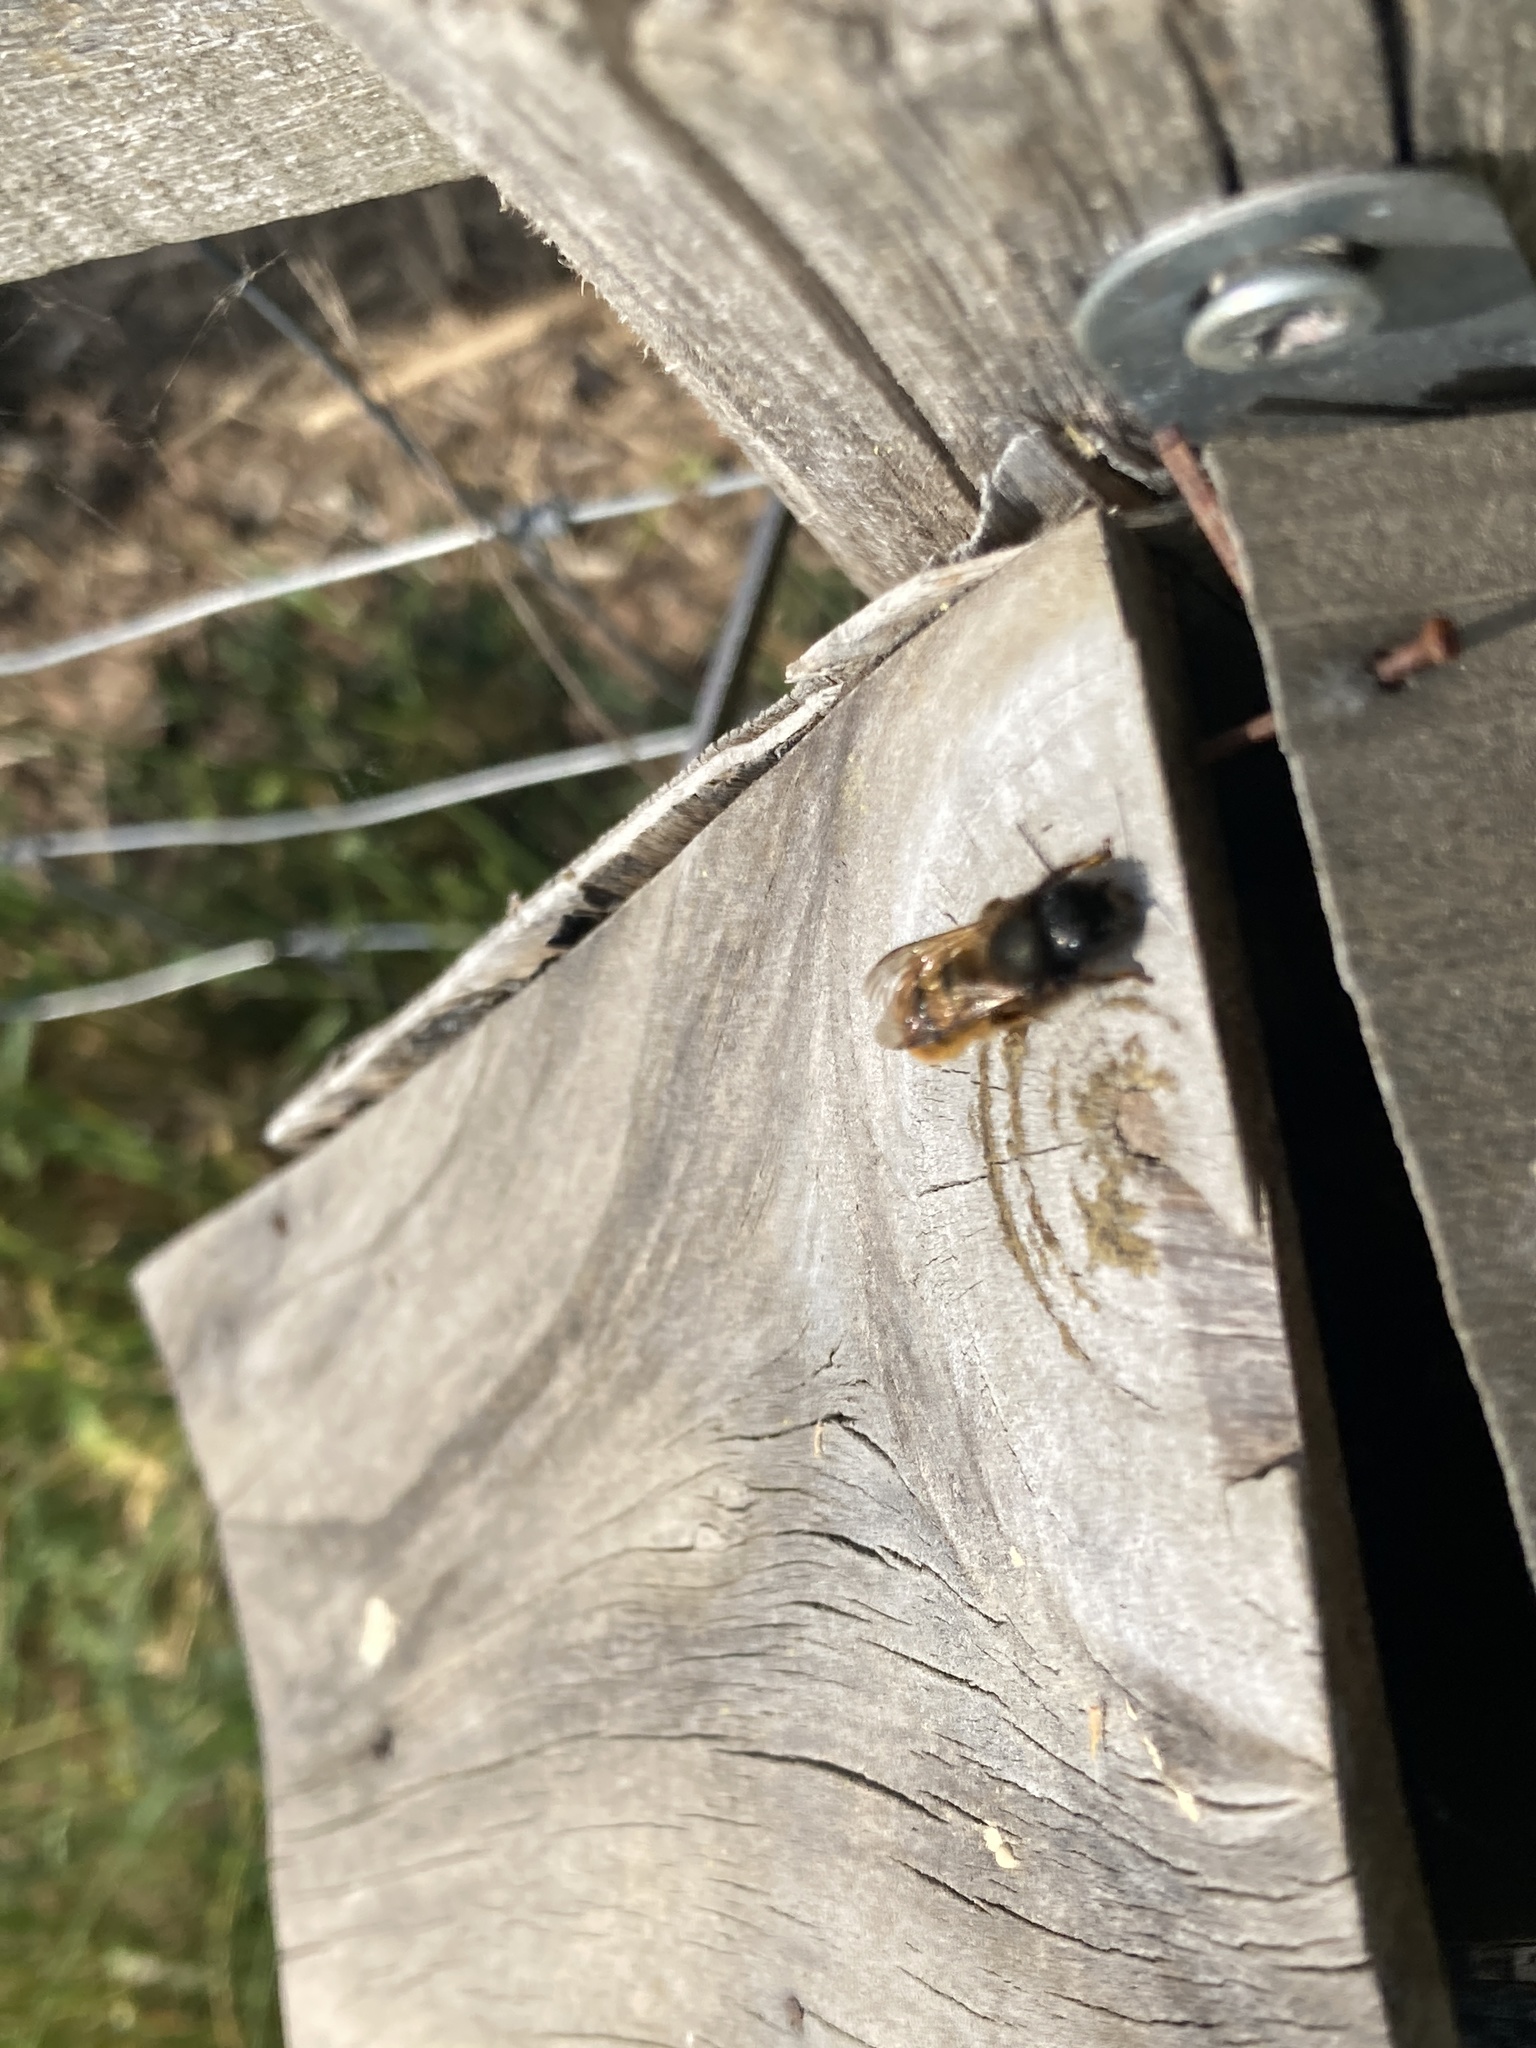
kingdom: Animalia
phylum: Arthropoda
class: Insecta
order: Hymenoptera
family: Megachilidae
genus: Osmia
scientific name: Osmia bicornis
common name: Red mason bee
